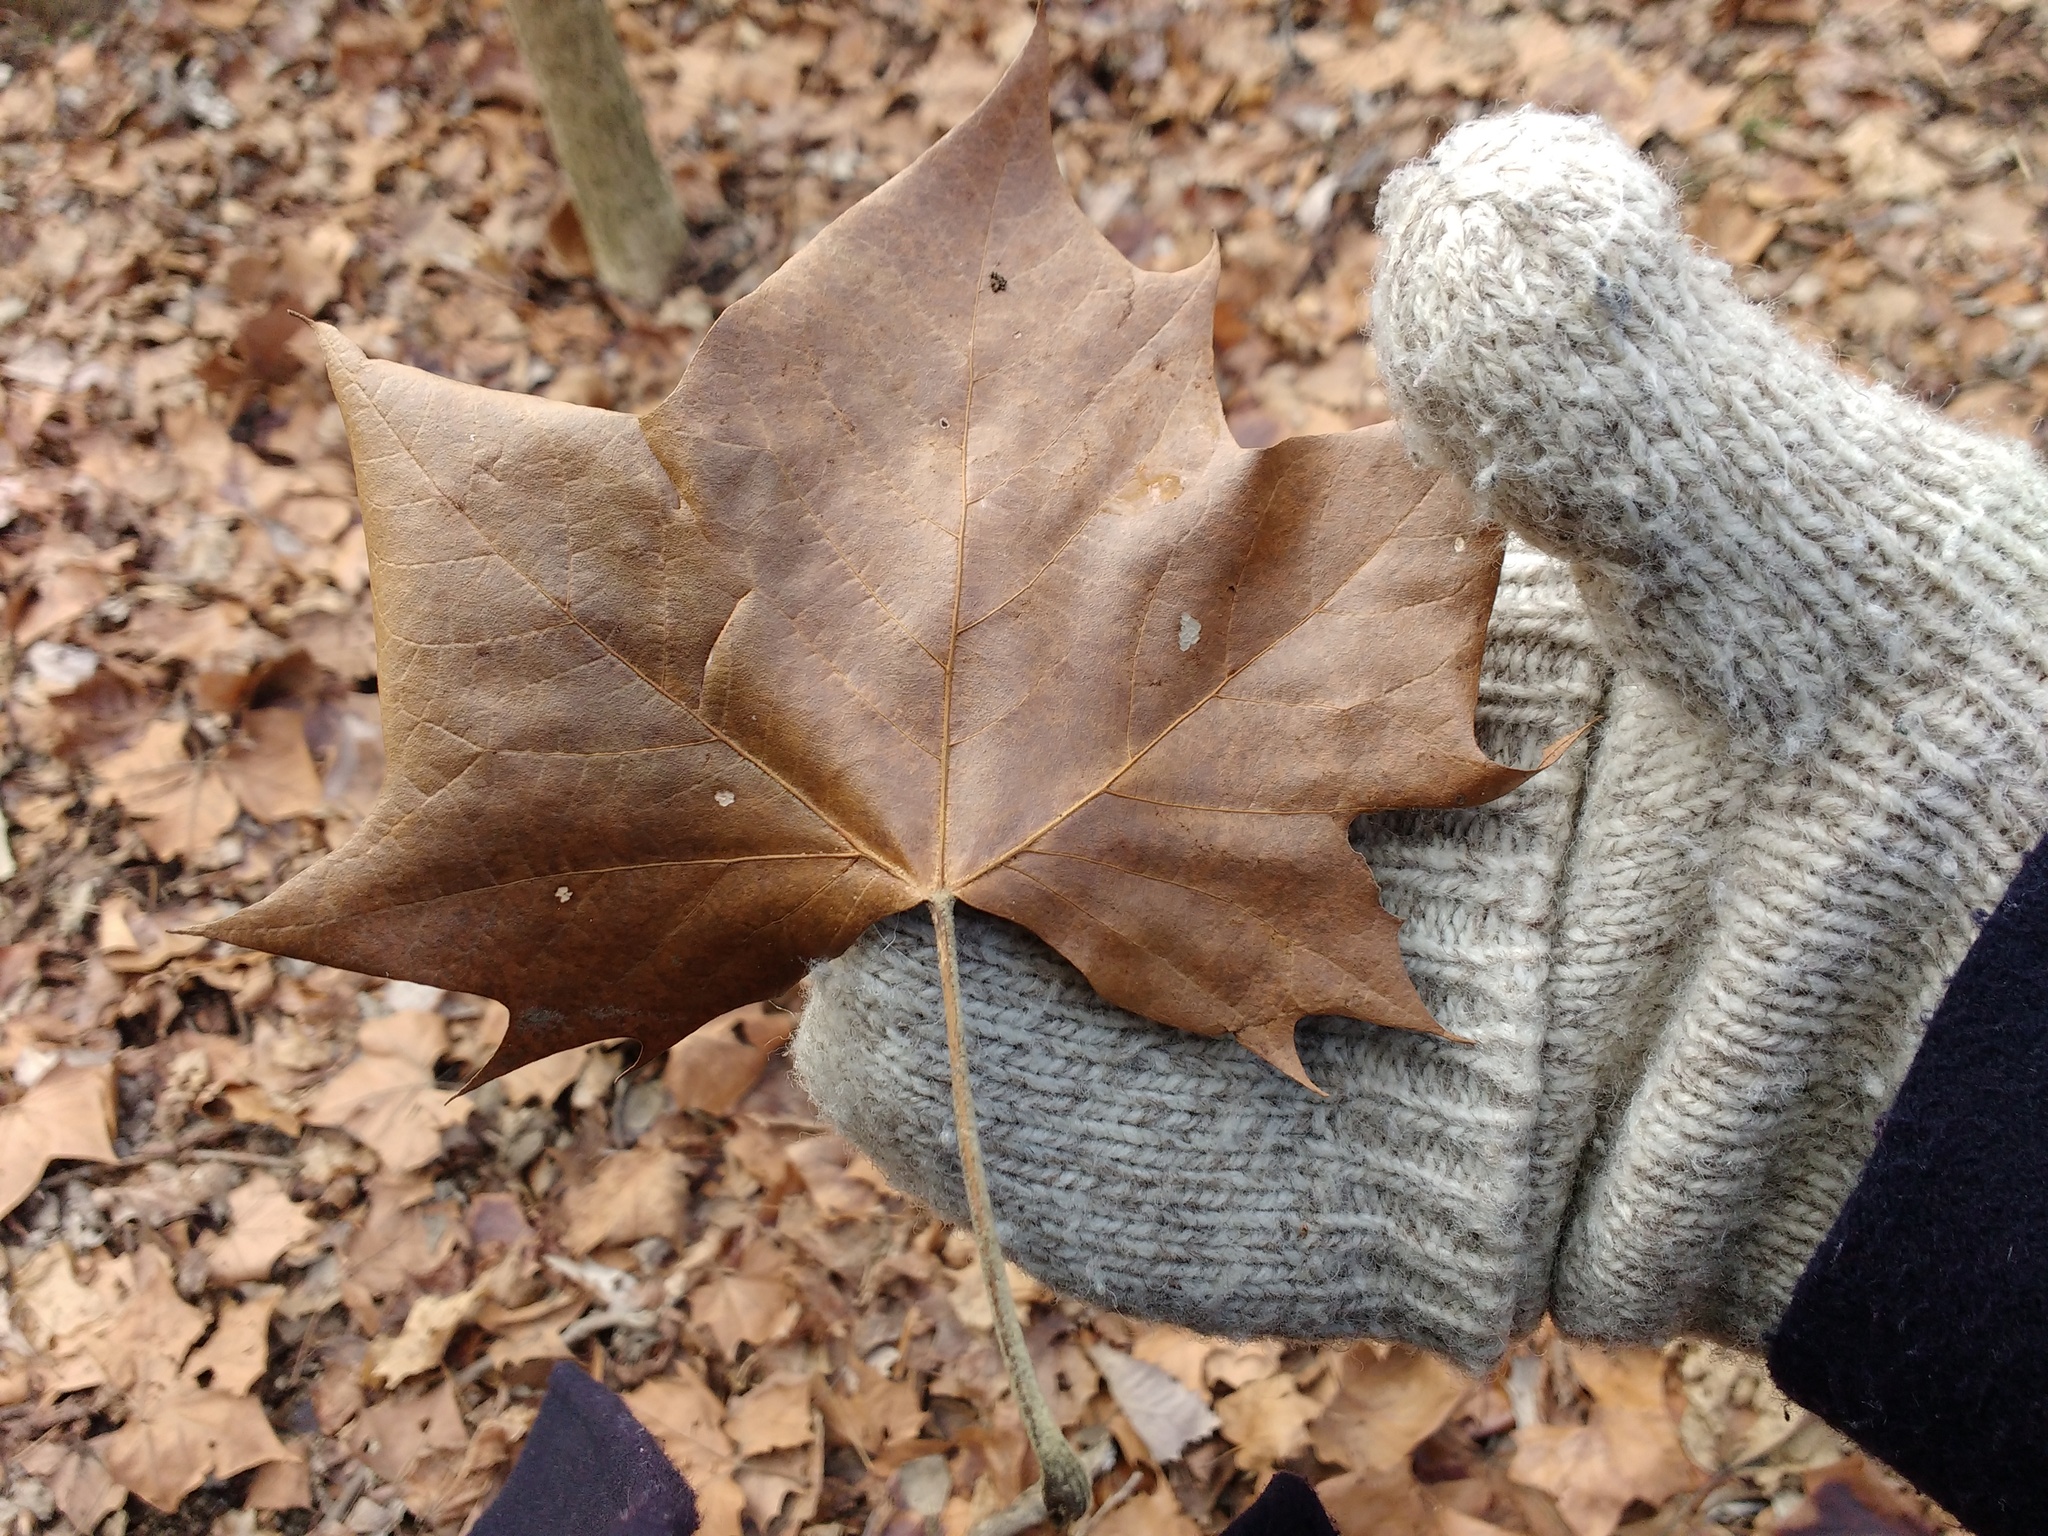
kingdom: Plantae
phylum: Tracheophyta
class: Magnoliopsida
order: Proteales
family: Platanaceae
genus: Platanus
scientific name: Platanus occidentalis
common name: American sycamore
